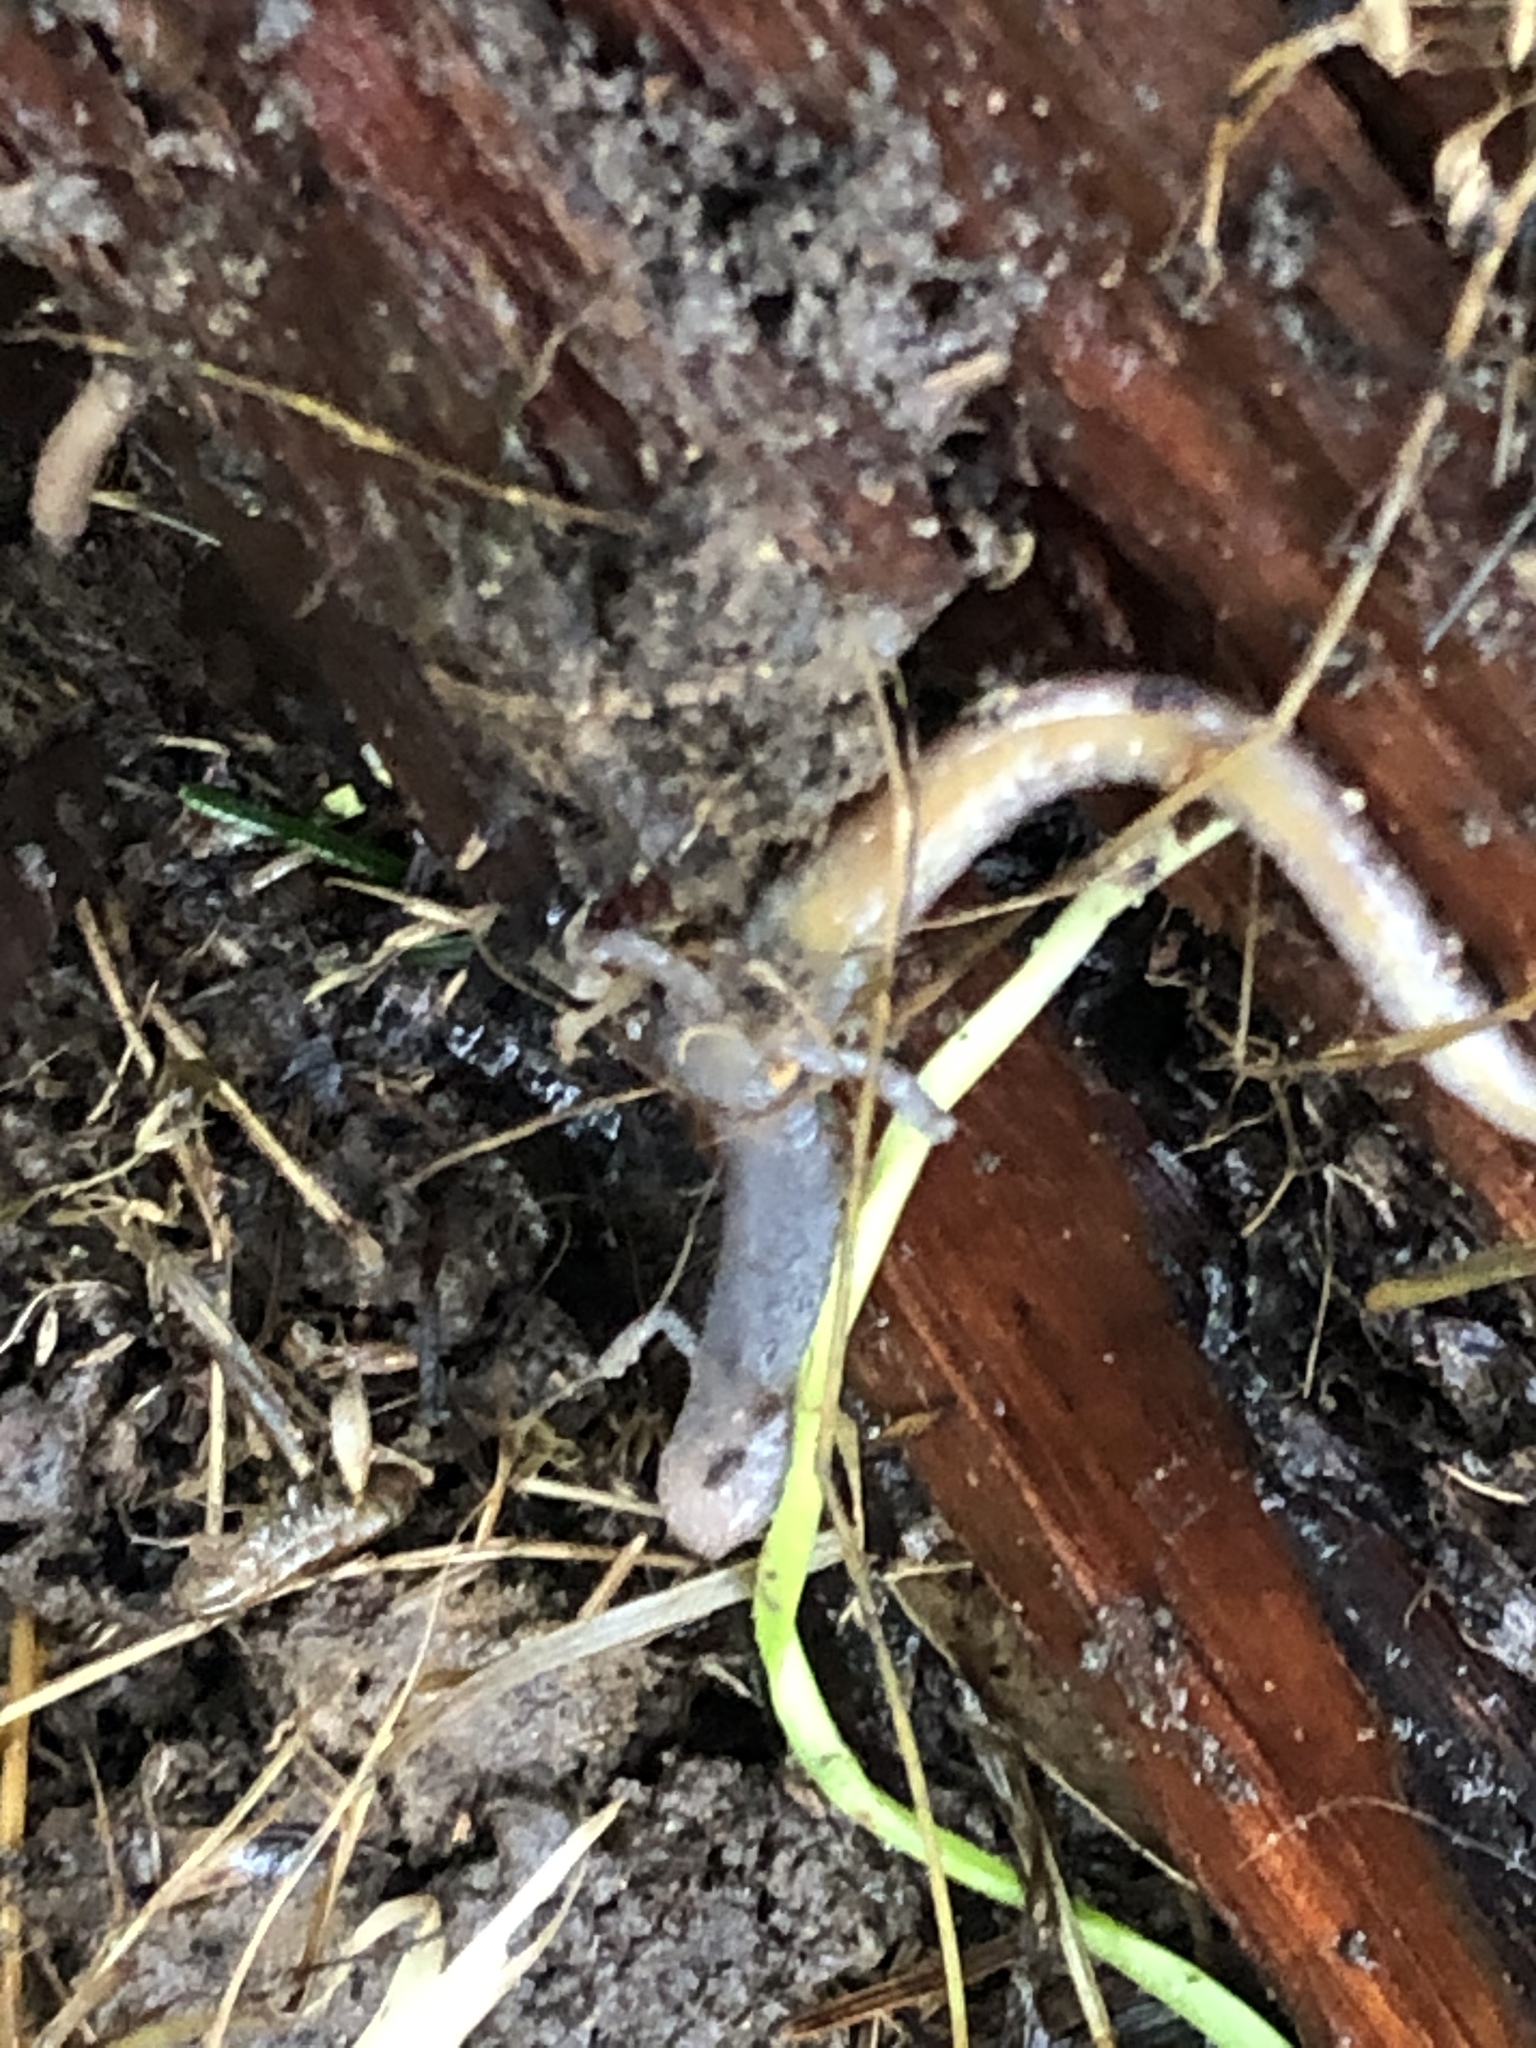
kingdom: Animalia
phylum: Chordata
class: Amphibia
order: Caudata
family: Plethodontidae
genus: Batrachoseps
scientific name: Batrachoseps attenuatus
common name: California slender salamander
